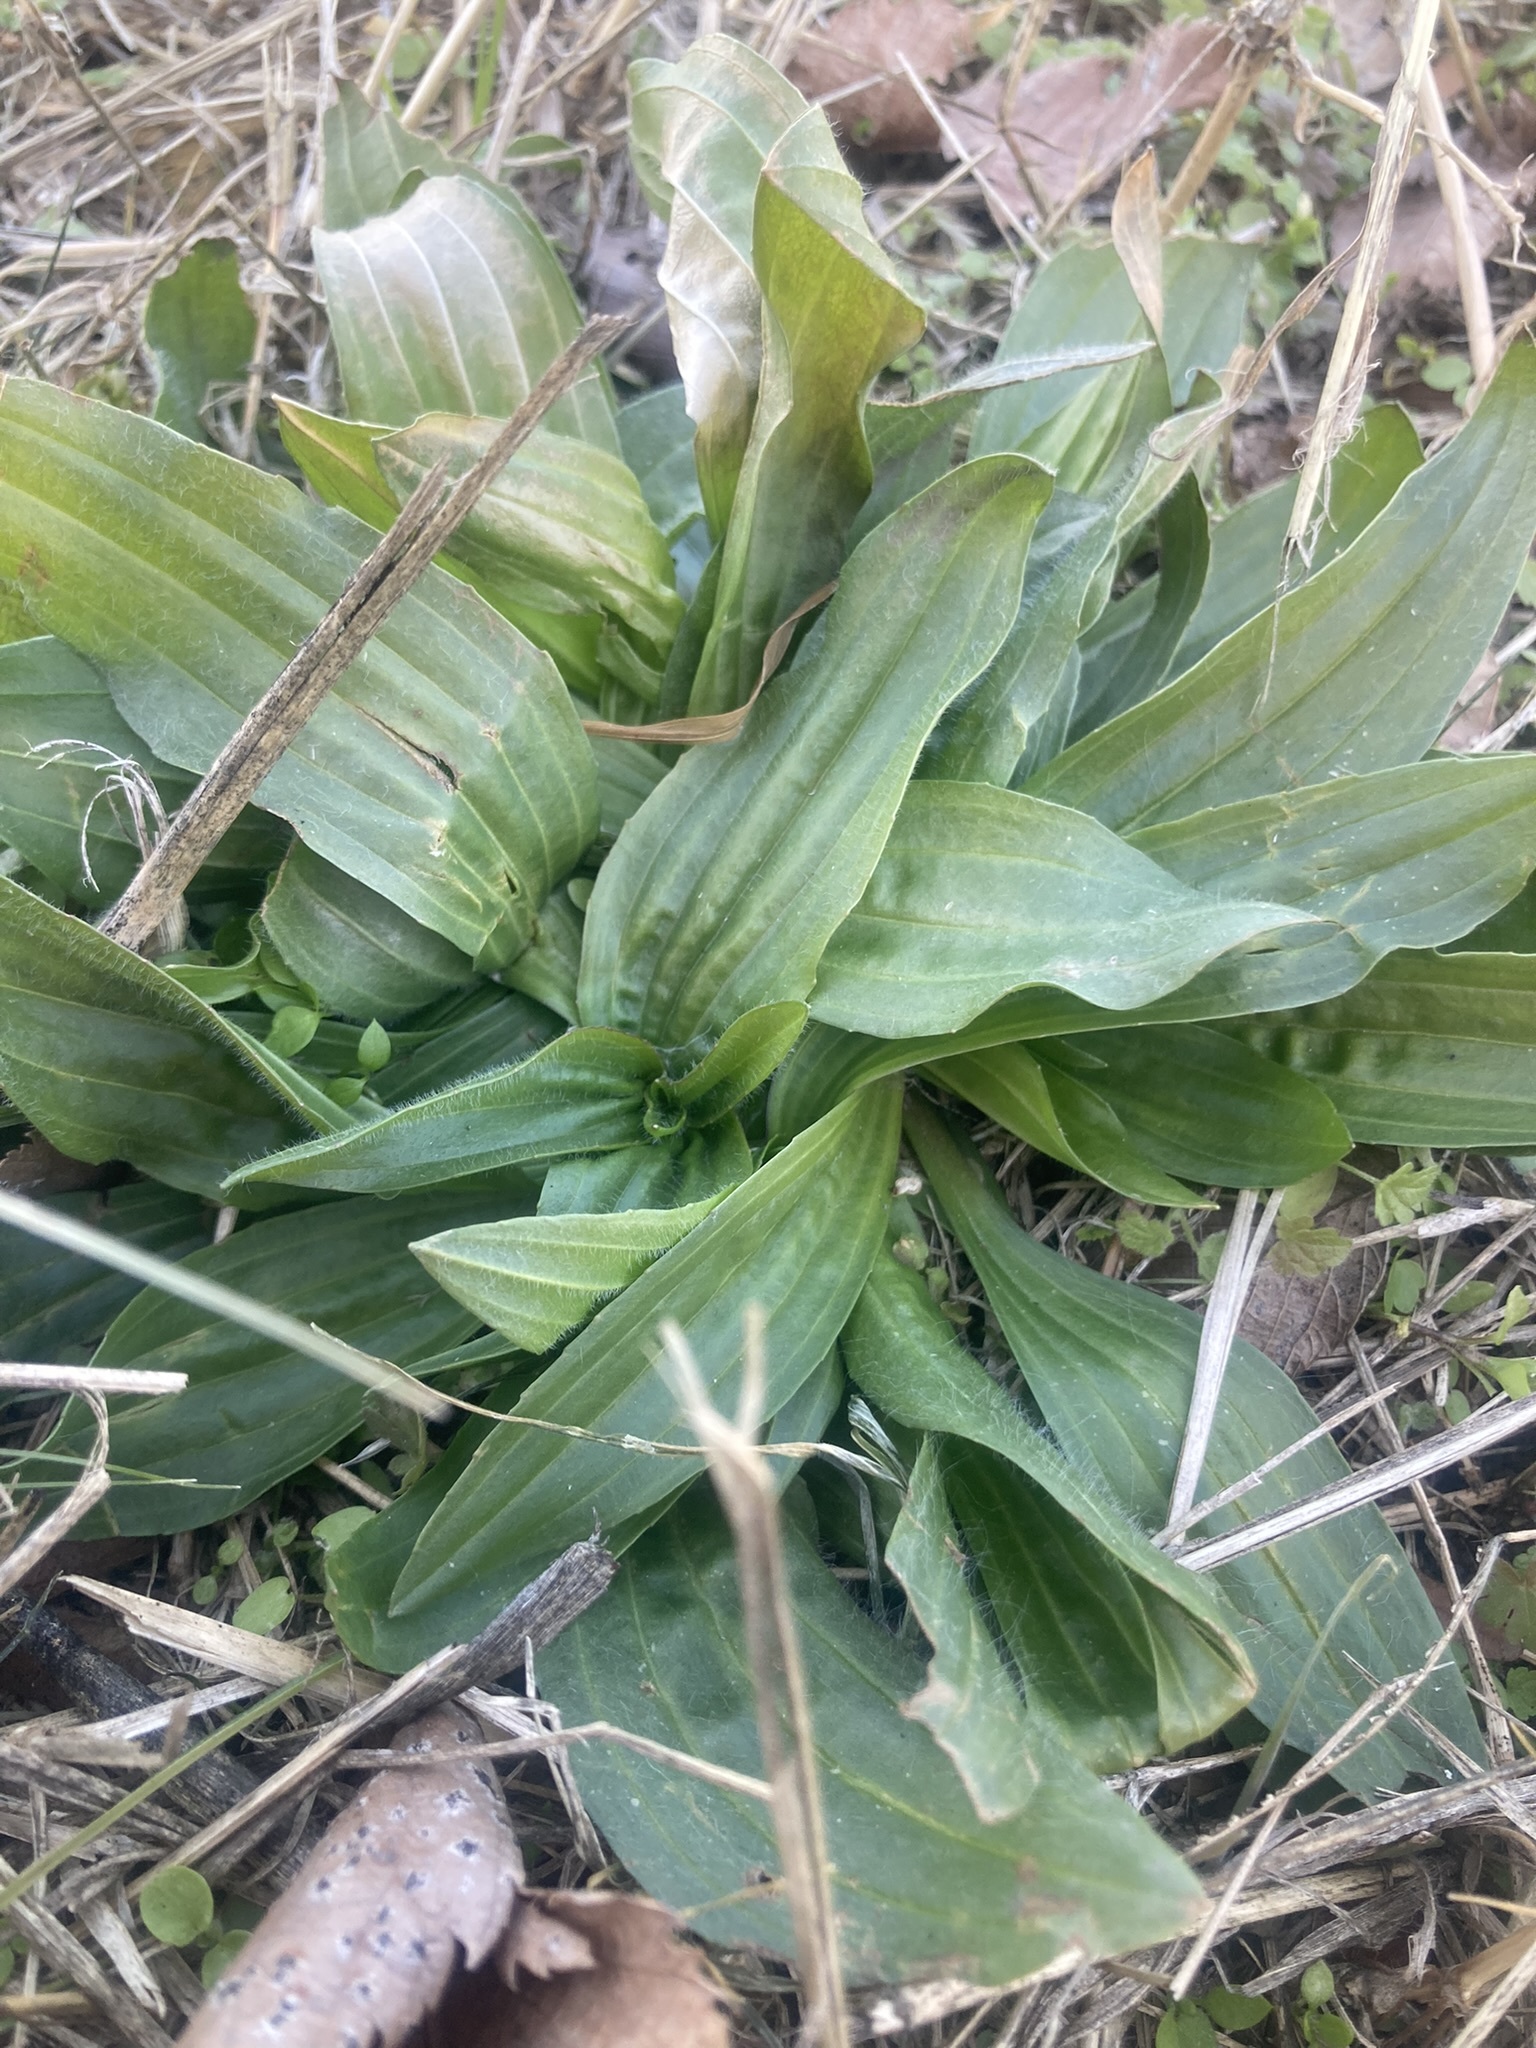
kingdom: Plantae
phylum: Tracheophyta
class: Magnoliopsida
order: Lamiales
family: Plantaginaceae
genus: Plantago
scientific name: Plantago lanceolata
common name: Ribwort plantain
